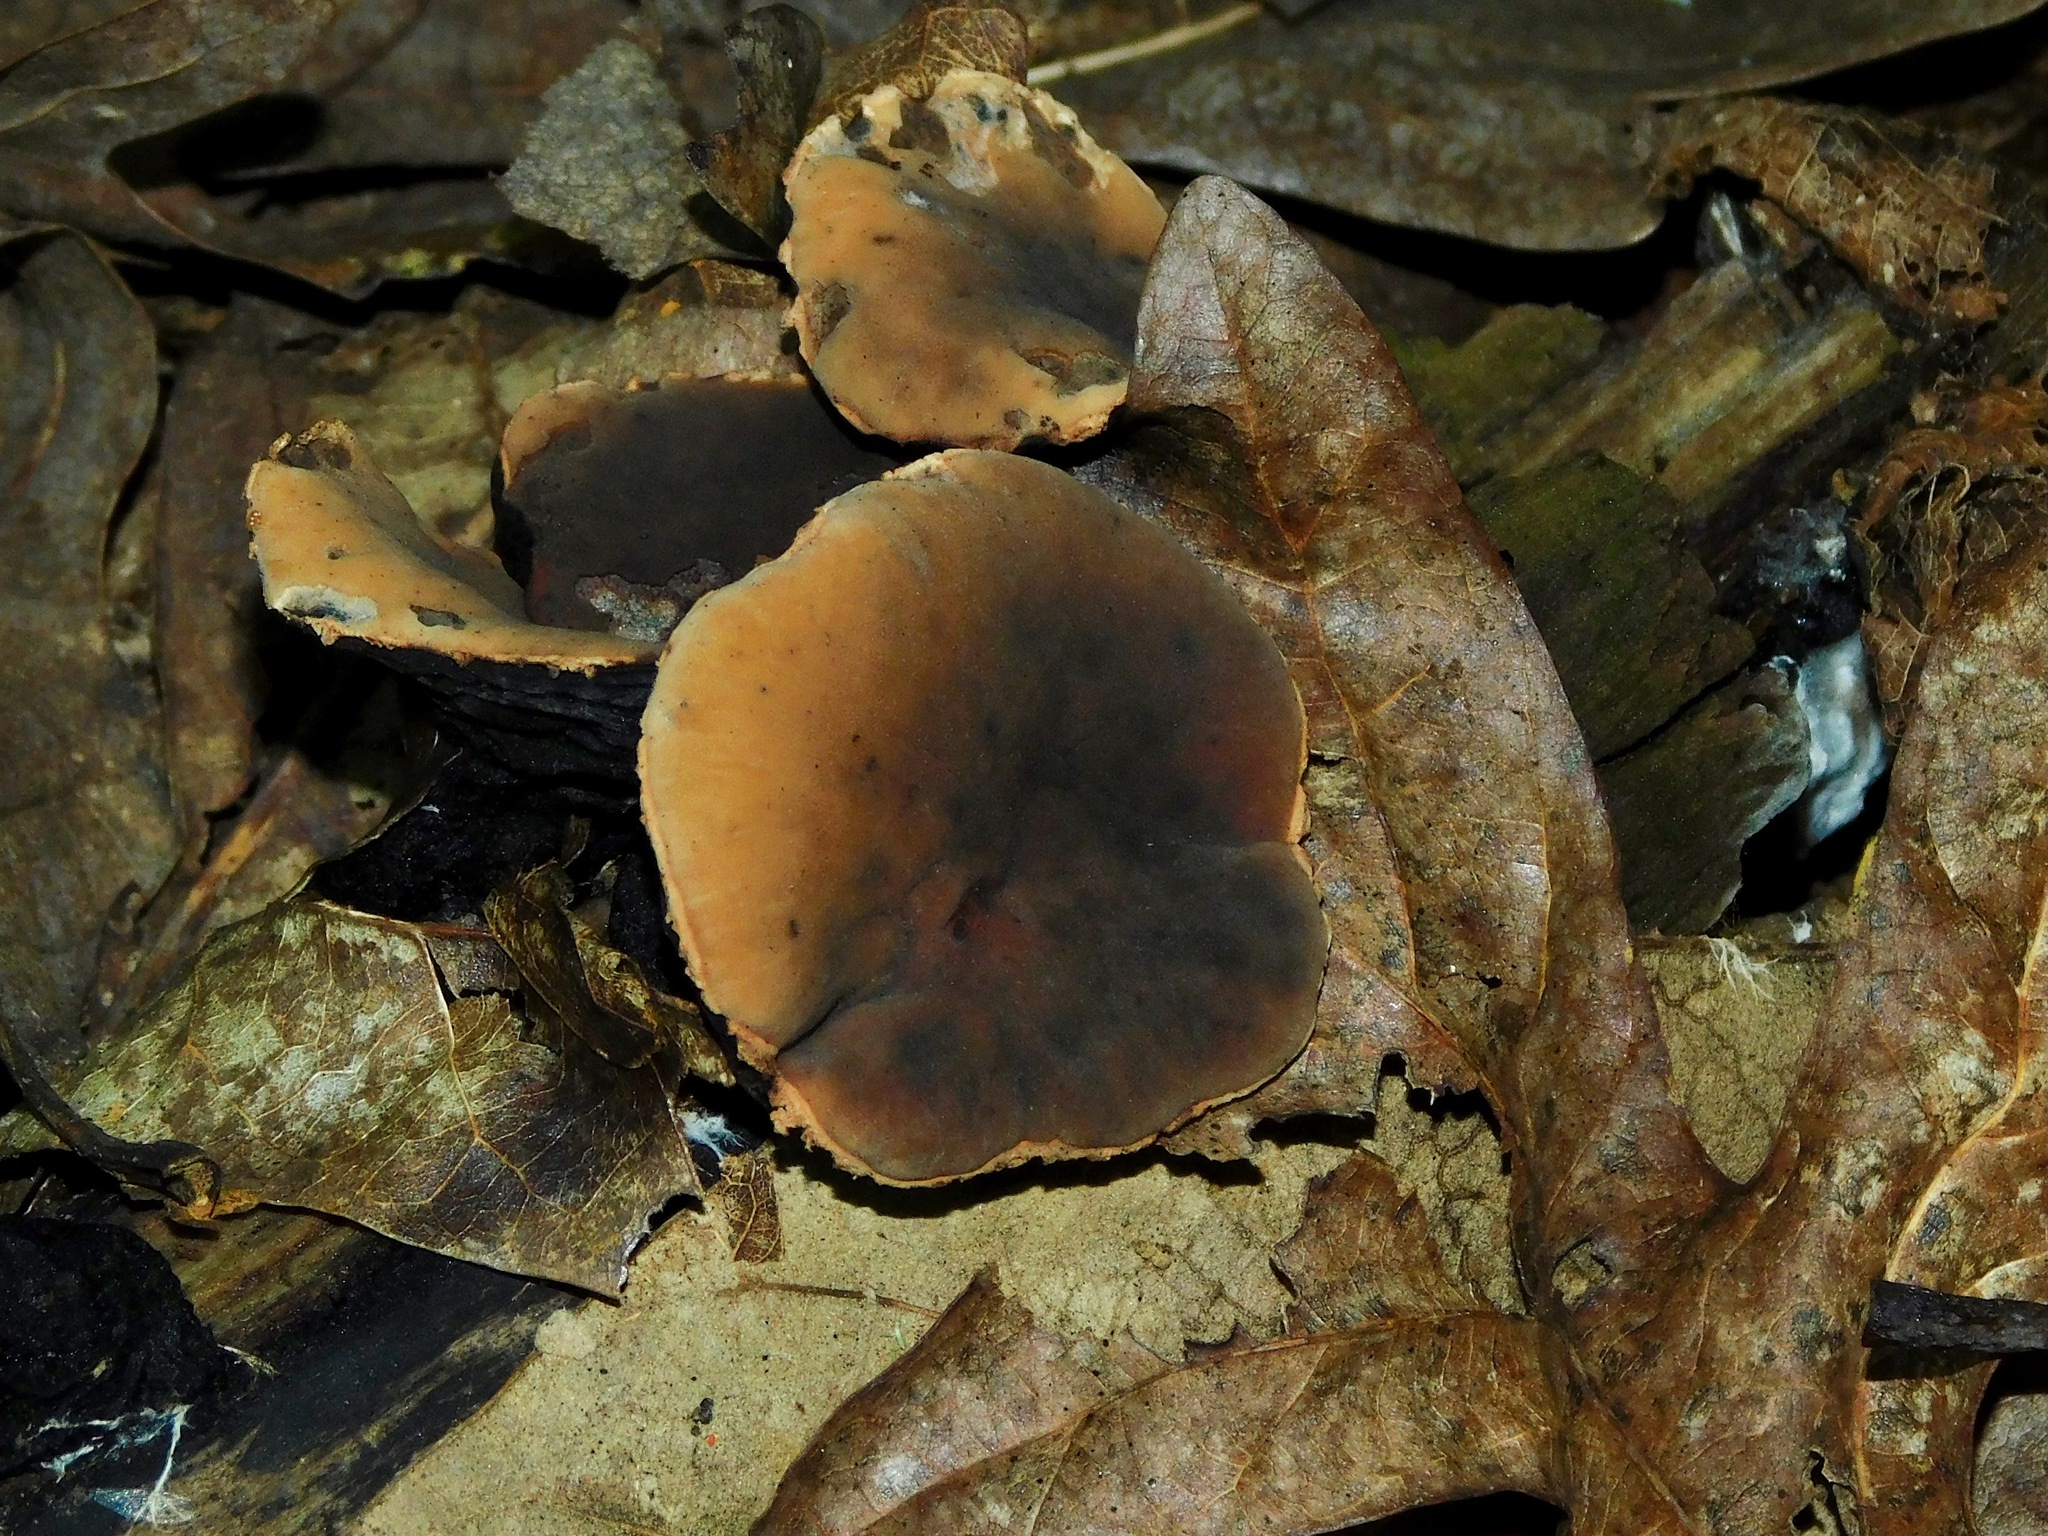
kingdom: Fungi
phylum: Ascomycota
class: Pezizomycetes
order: Pezizales
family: Sarcosomataceae
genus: Galiella
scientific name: Galiella rufa
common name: Hairy rubber cup
